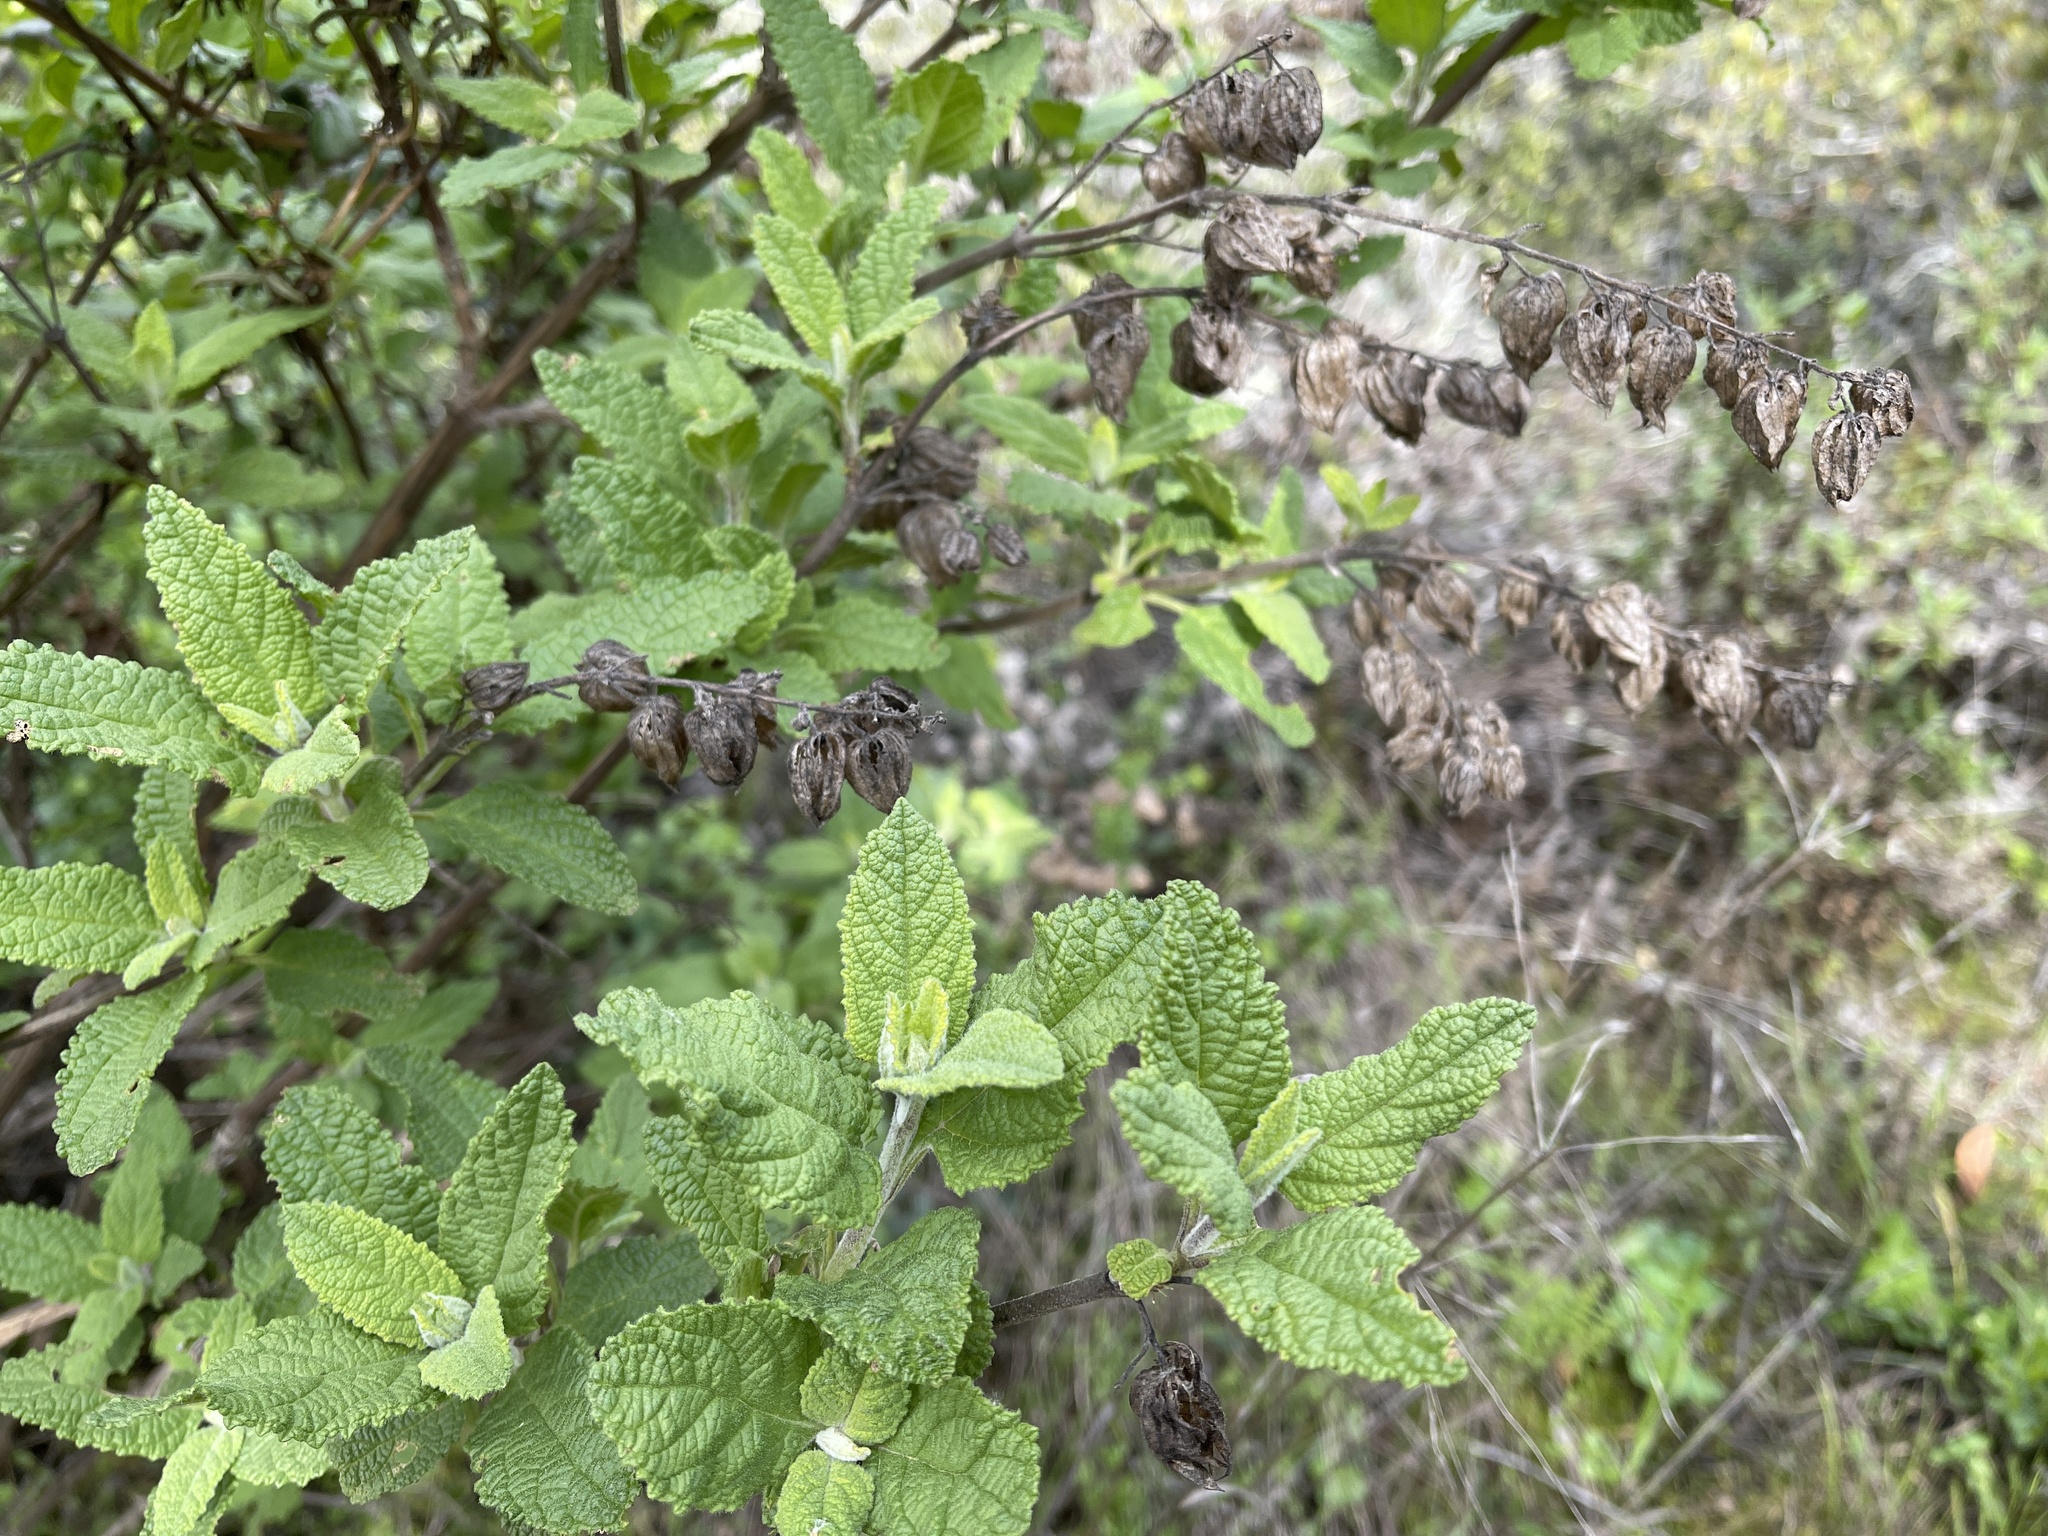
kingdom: Plantae
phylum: Tracheophyta
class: Magnoliopsida
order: Lamiales
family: Lamiaceae
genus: Lepechinia
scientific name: Lepechinia calycina
